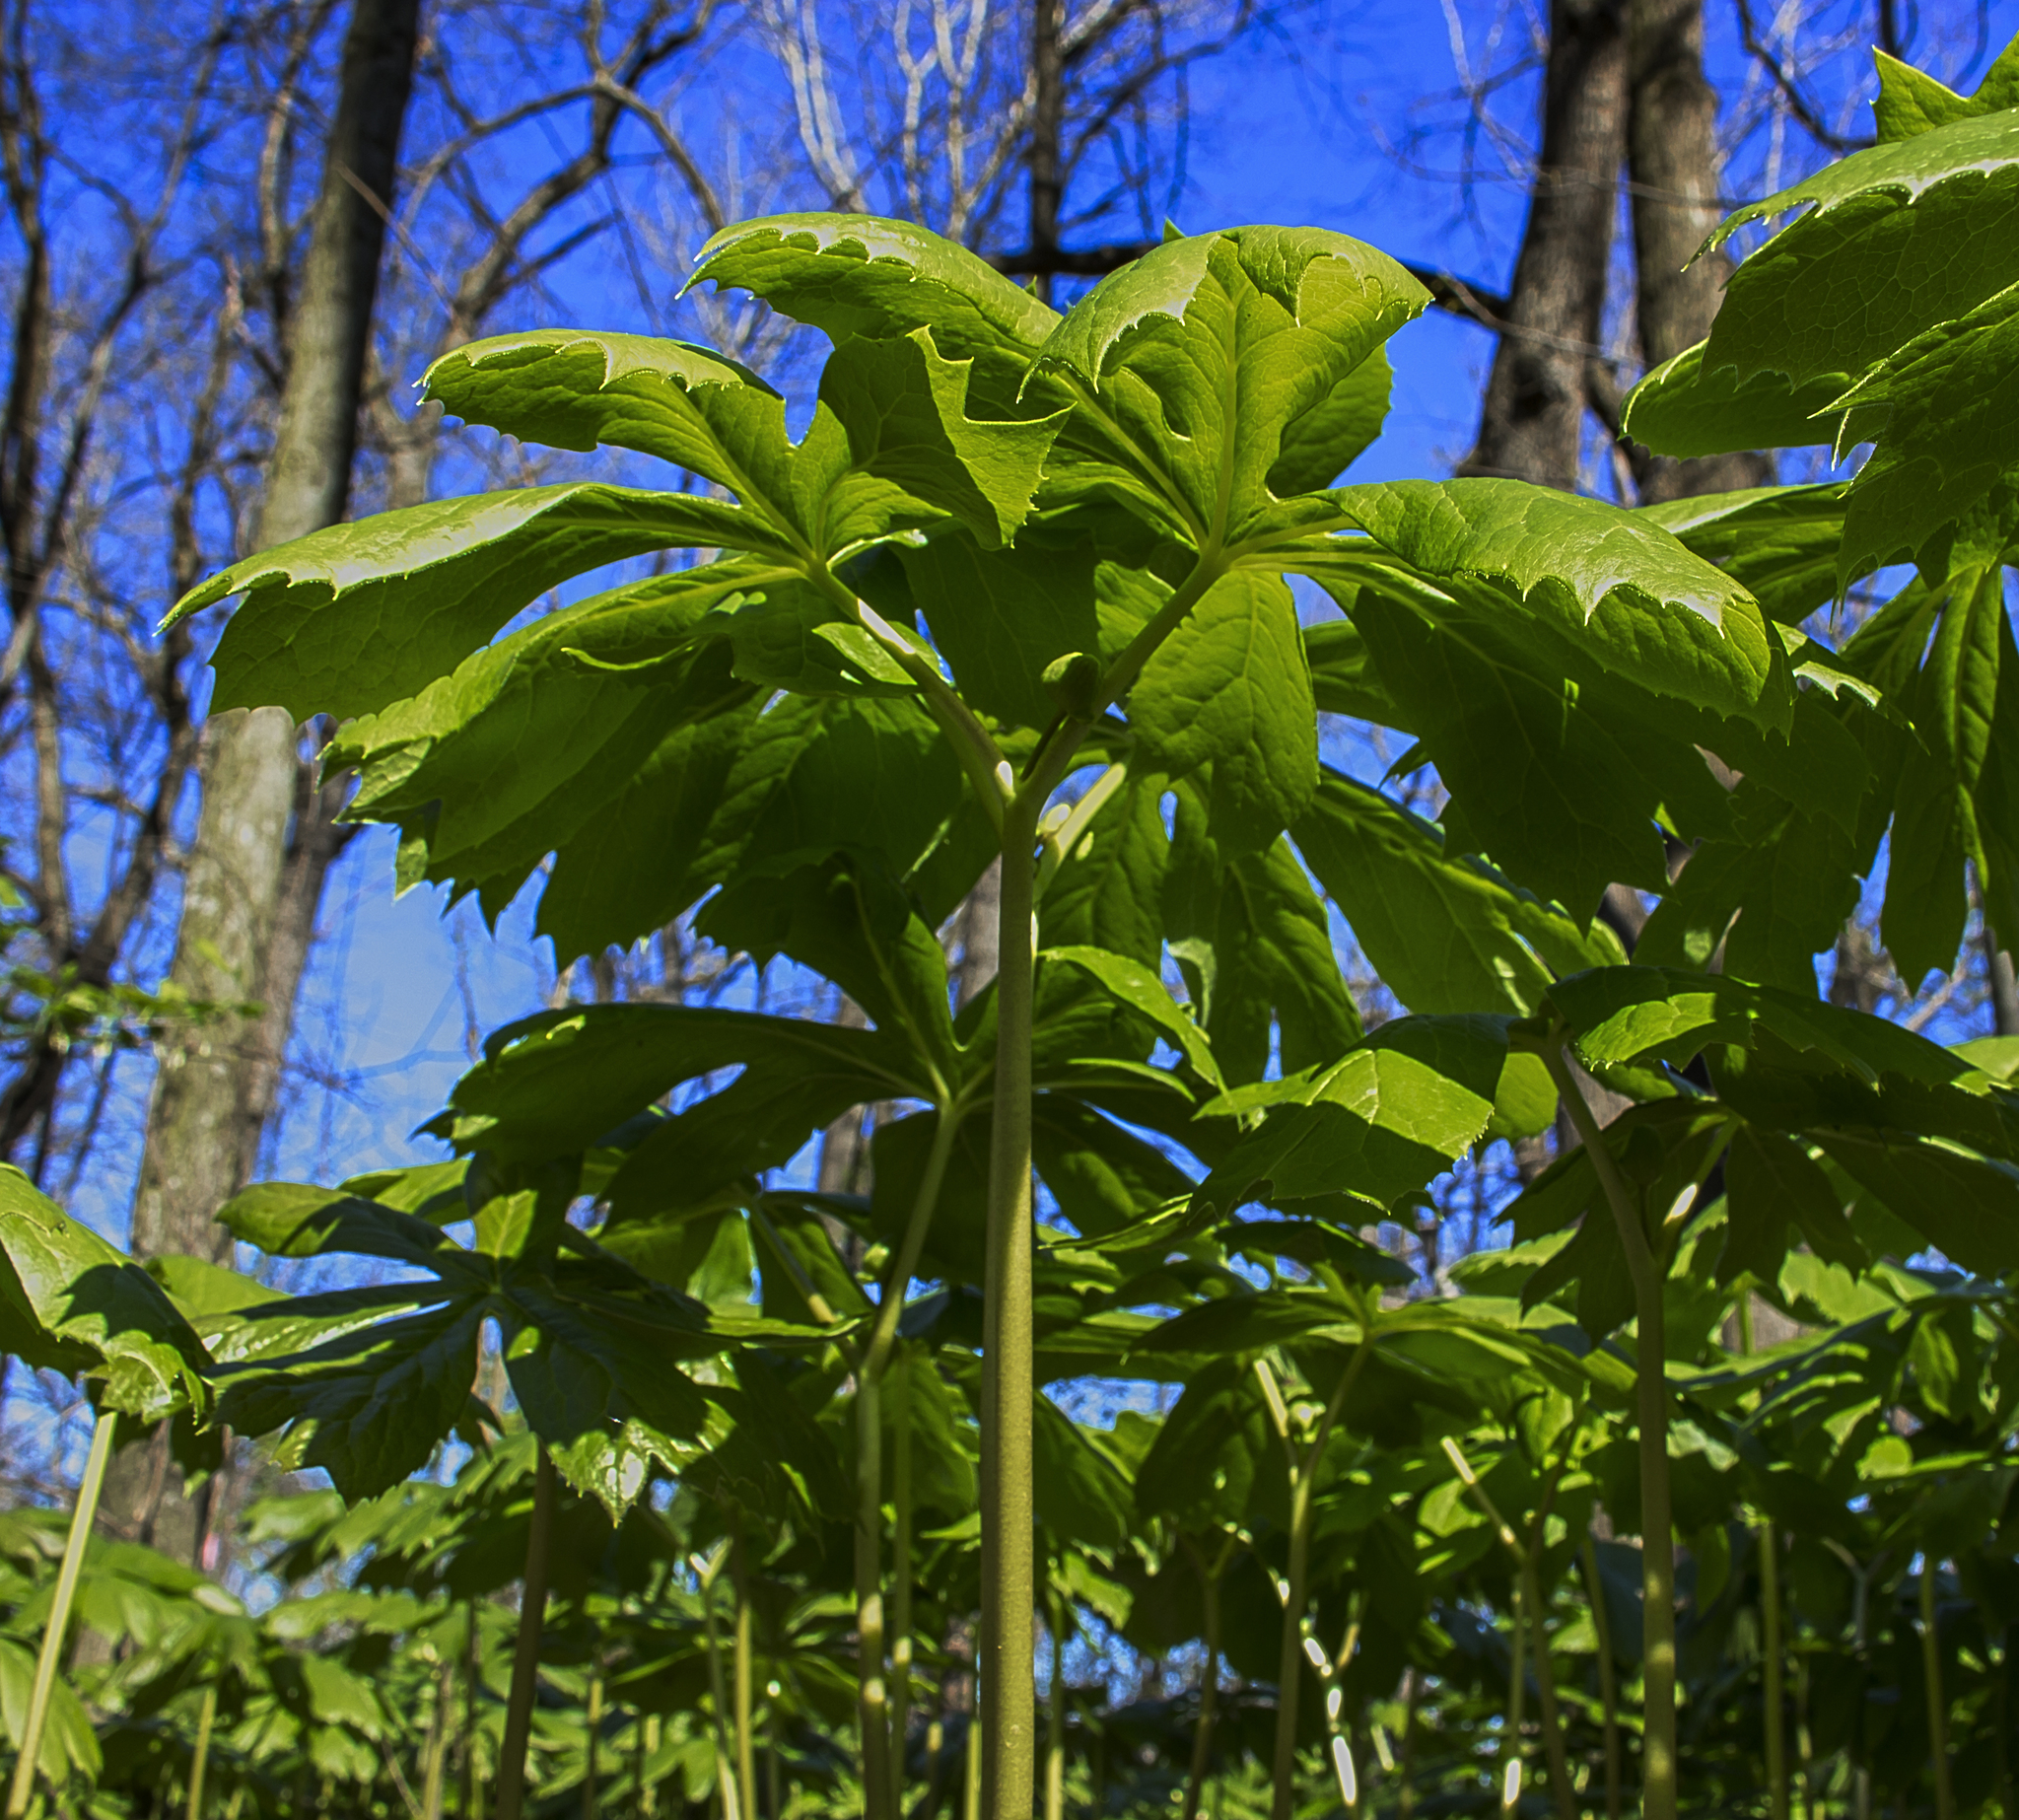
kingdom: Plantae
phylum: Tracheophyta
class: Magnoliopsida
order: Ranunculales
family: Berberidaceae
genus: Podophyllum
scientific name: Podophyllum peltatum
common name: Wild mandrake
